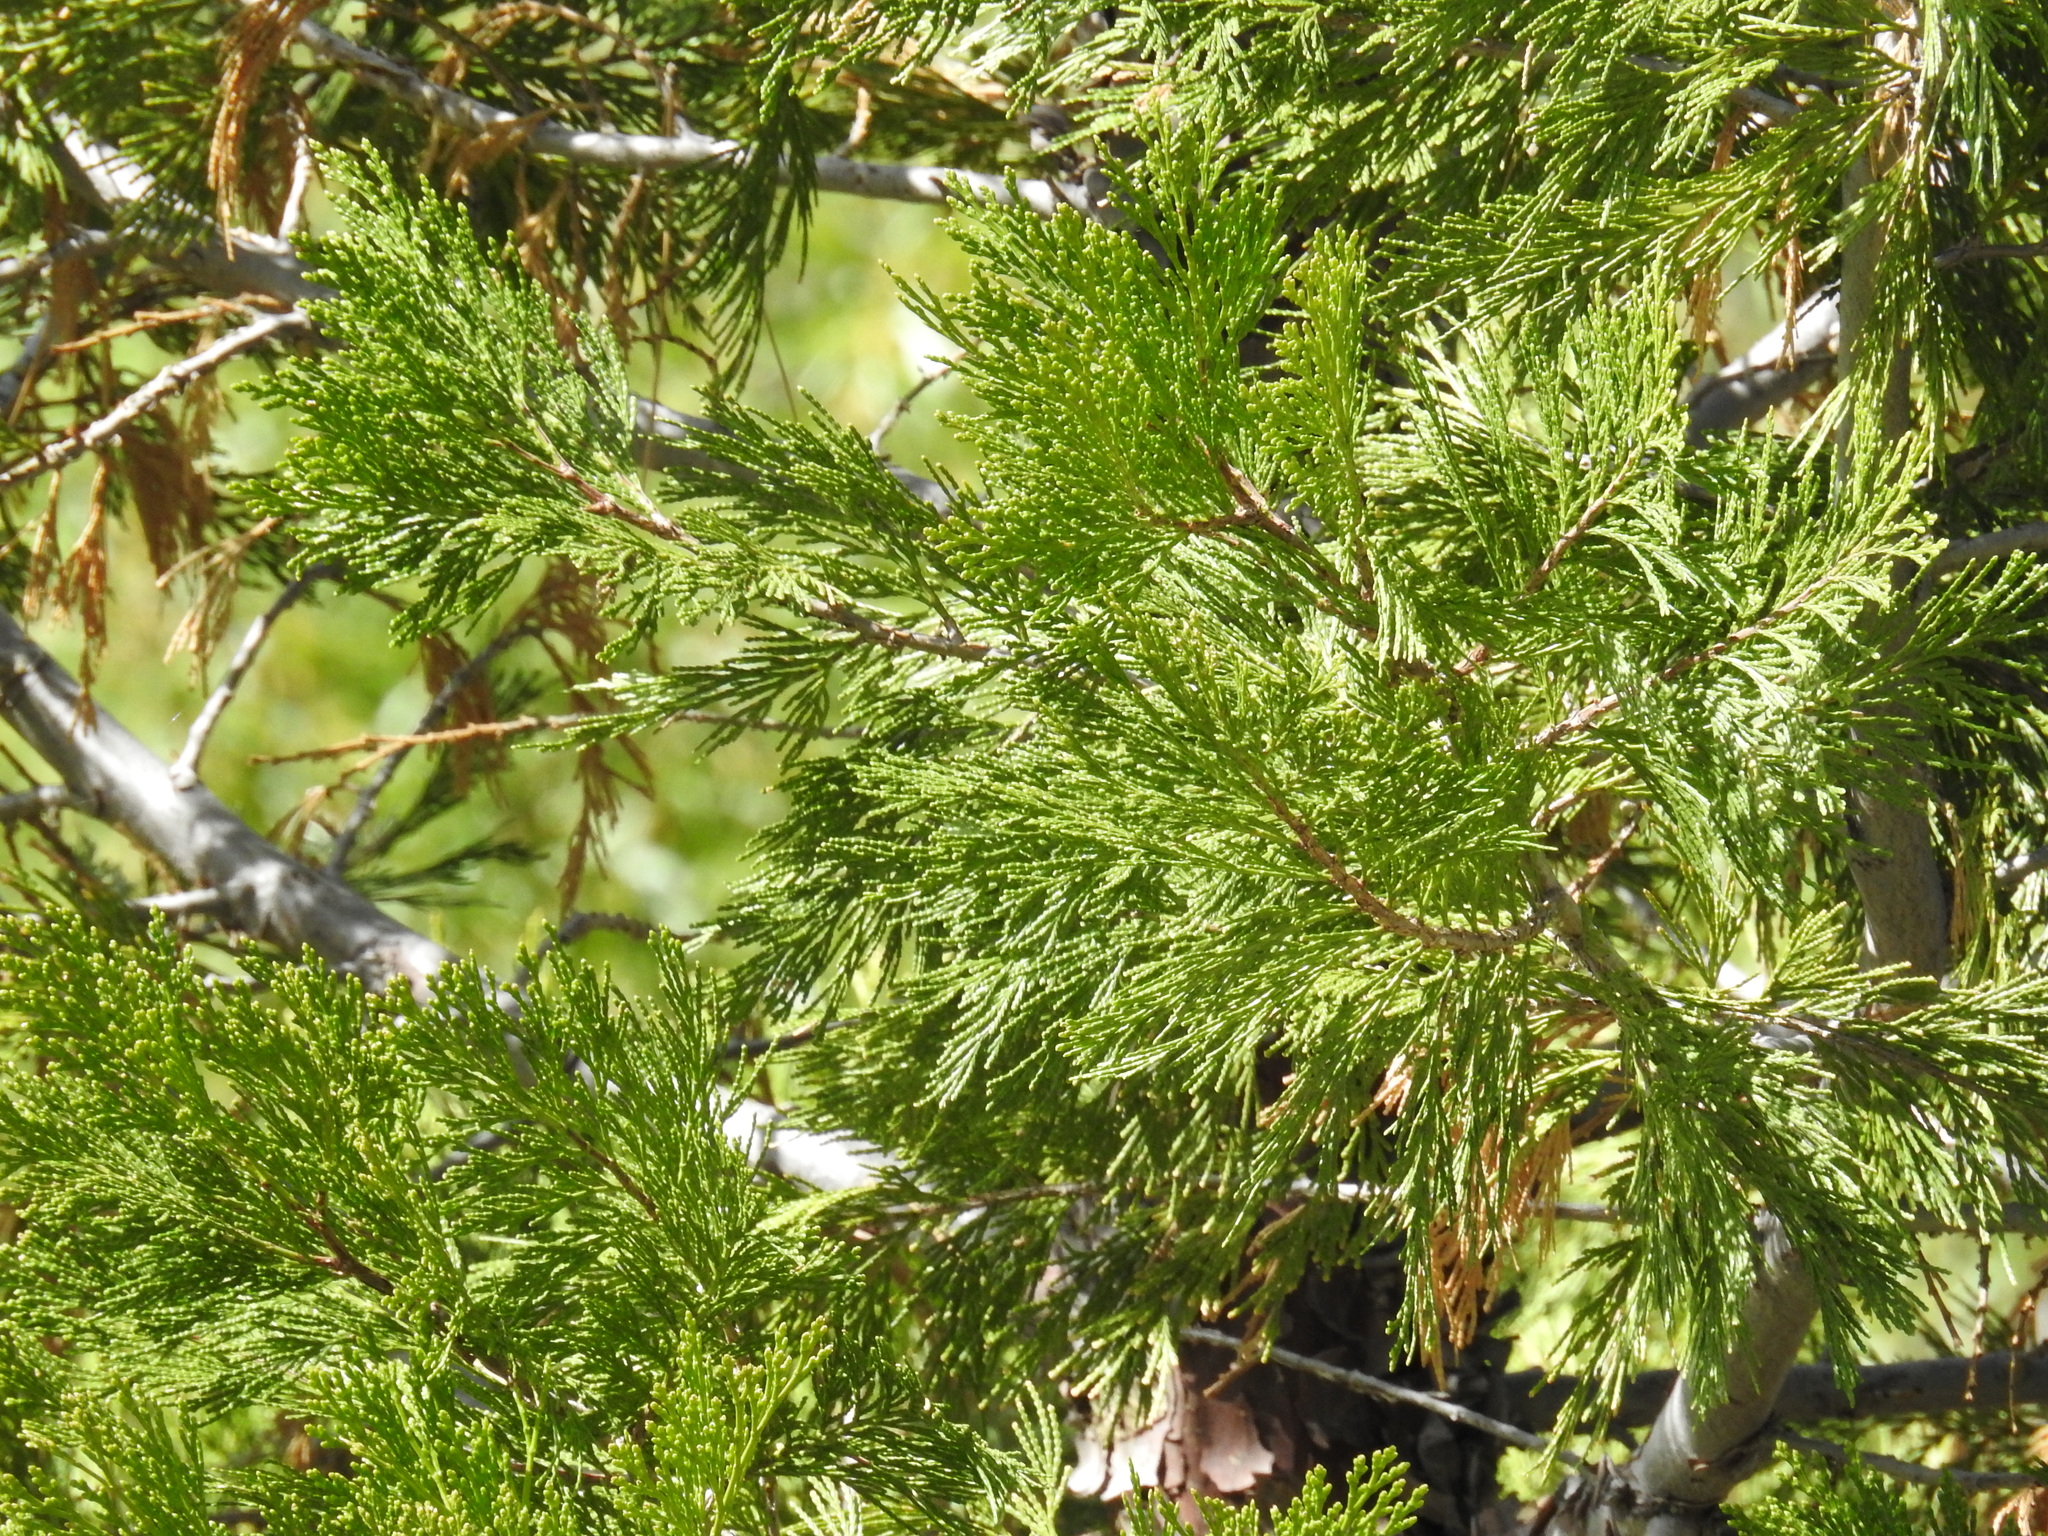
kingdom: Plantae
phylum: Tracheophyta
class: Pinopsida
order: Pinales
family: Cupressaceae
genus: Calocedrus
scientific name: Calocedrus decurrens
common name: Californian incense-cedar
